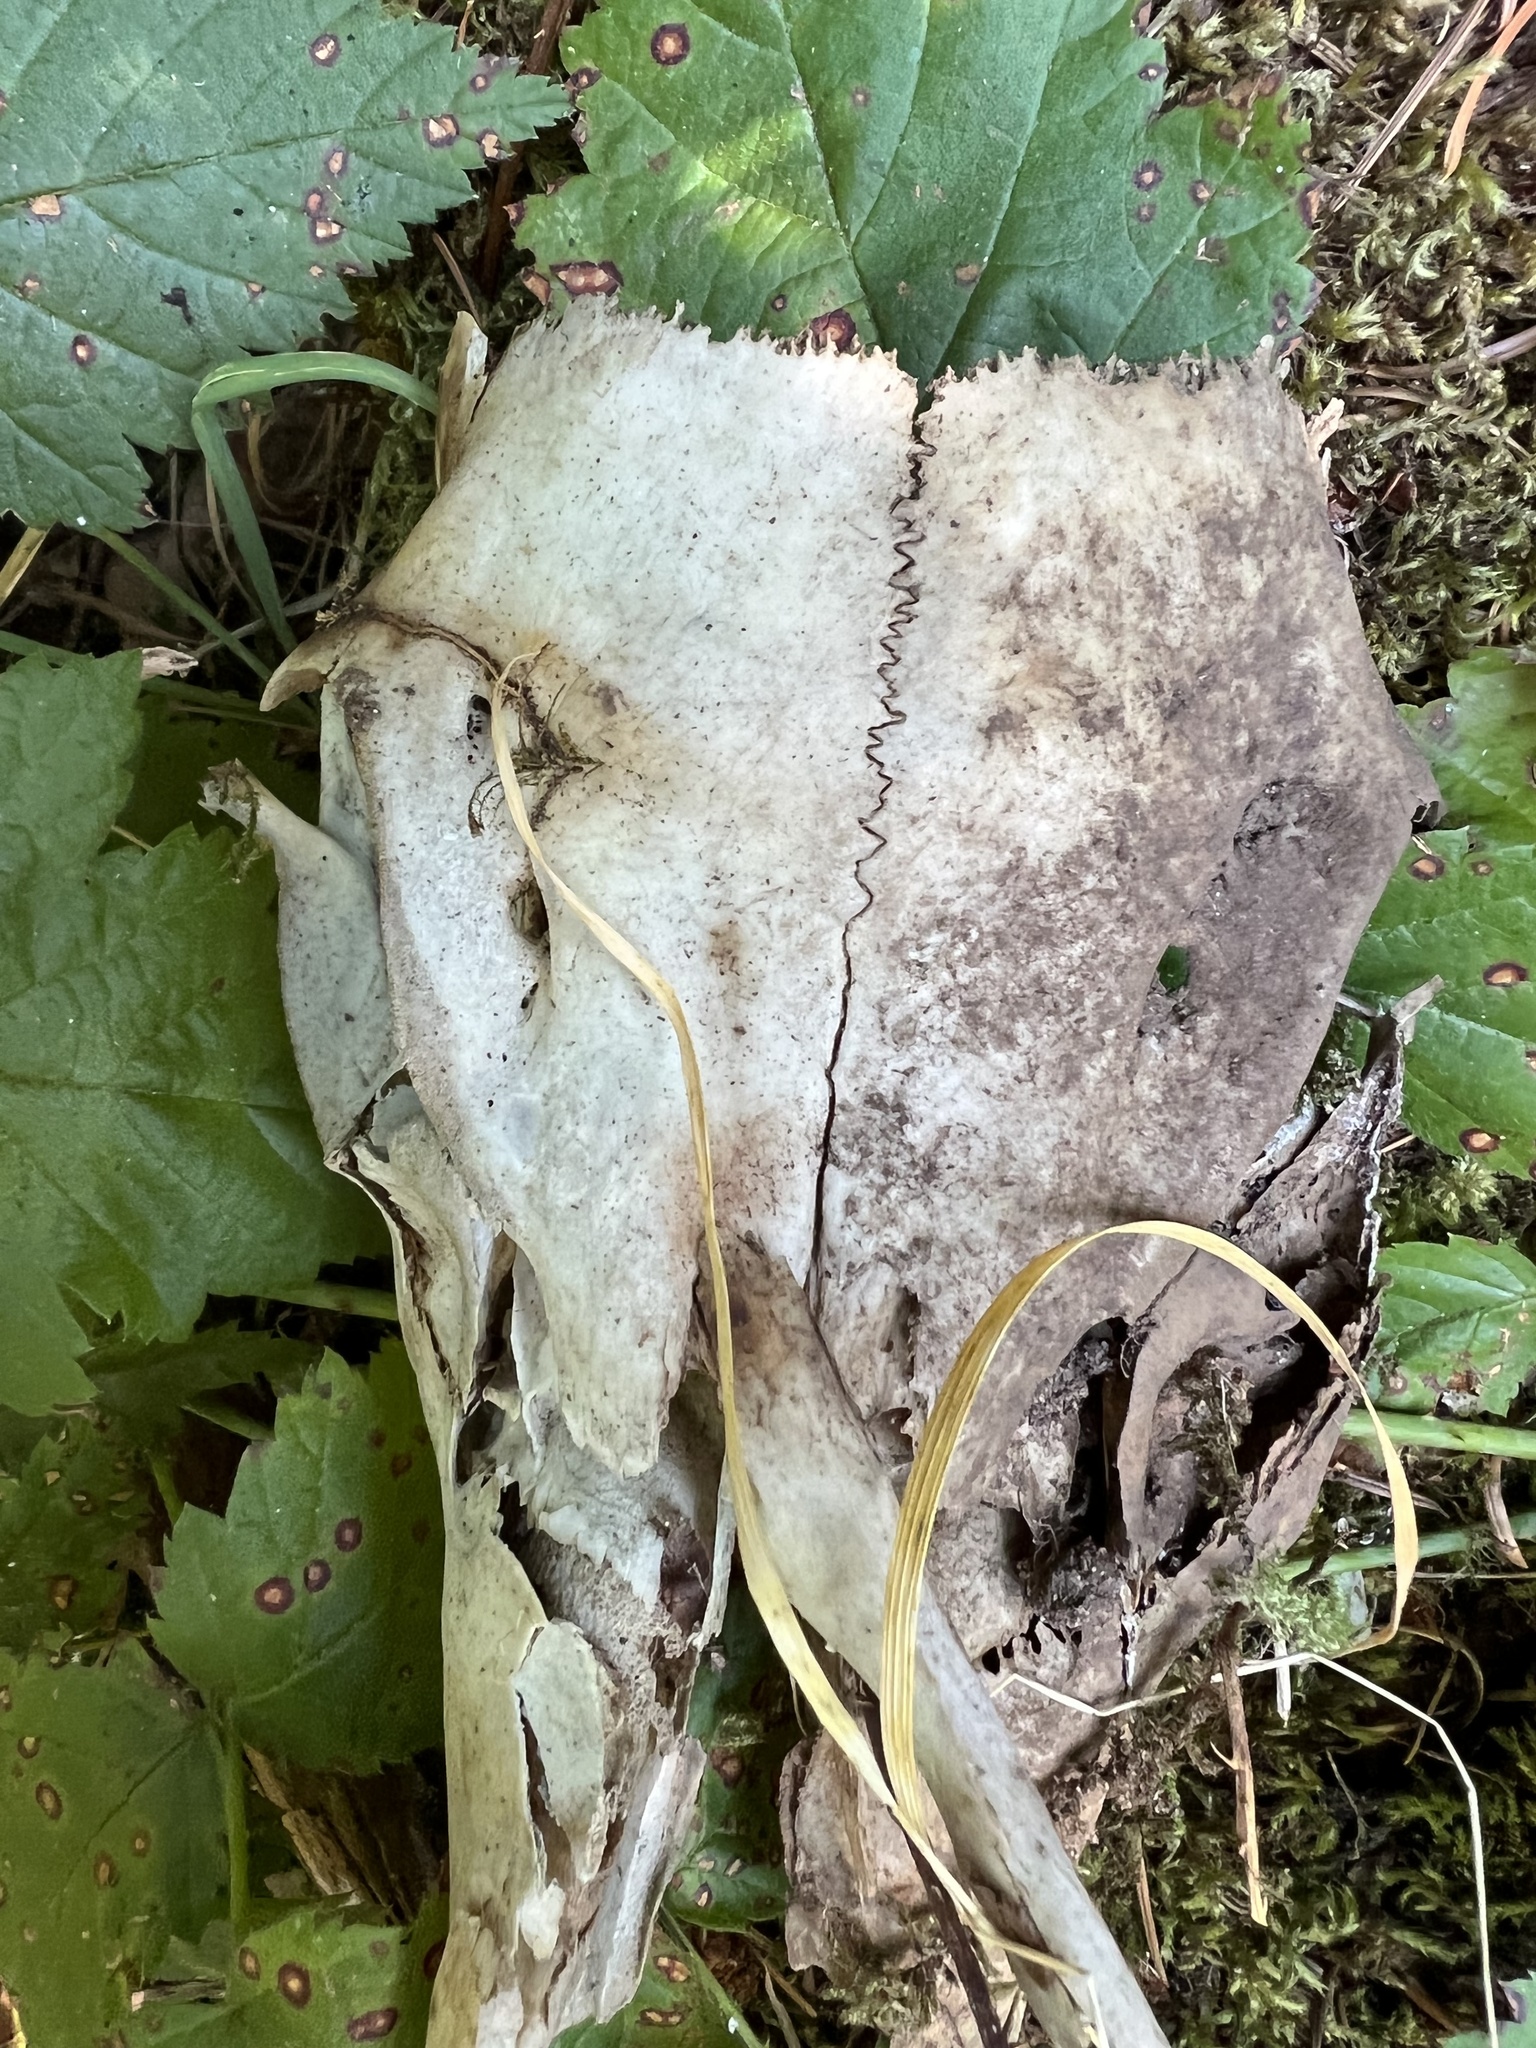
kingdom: Animalia
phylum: Chordata
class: Mammalia
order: Artiodactyla
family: Cervidae
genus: Odocoileus
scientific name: Odocoileus hemionus
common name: Mule deer
